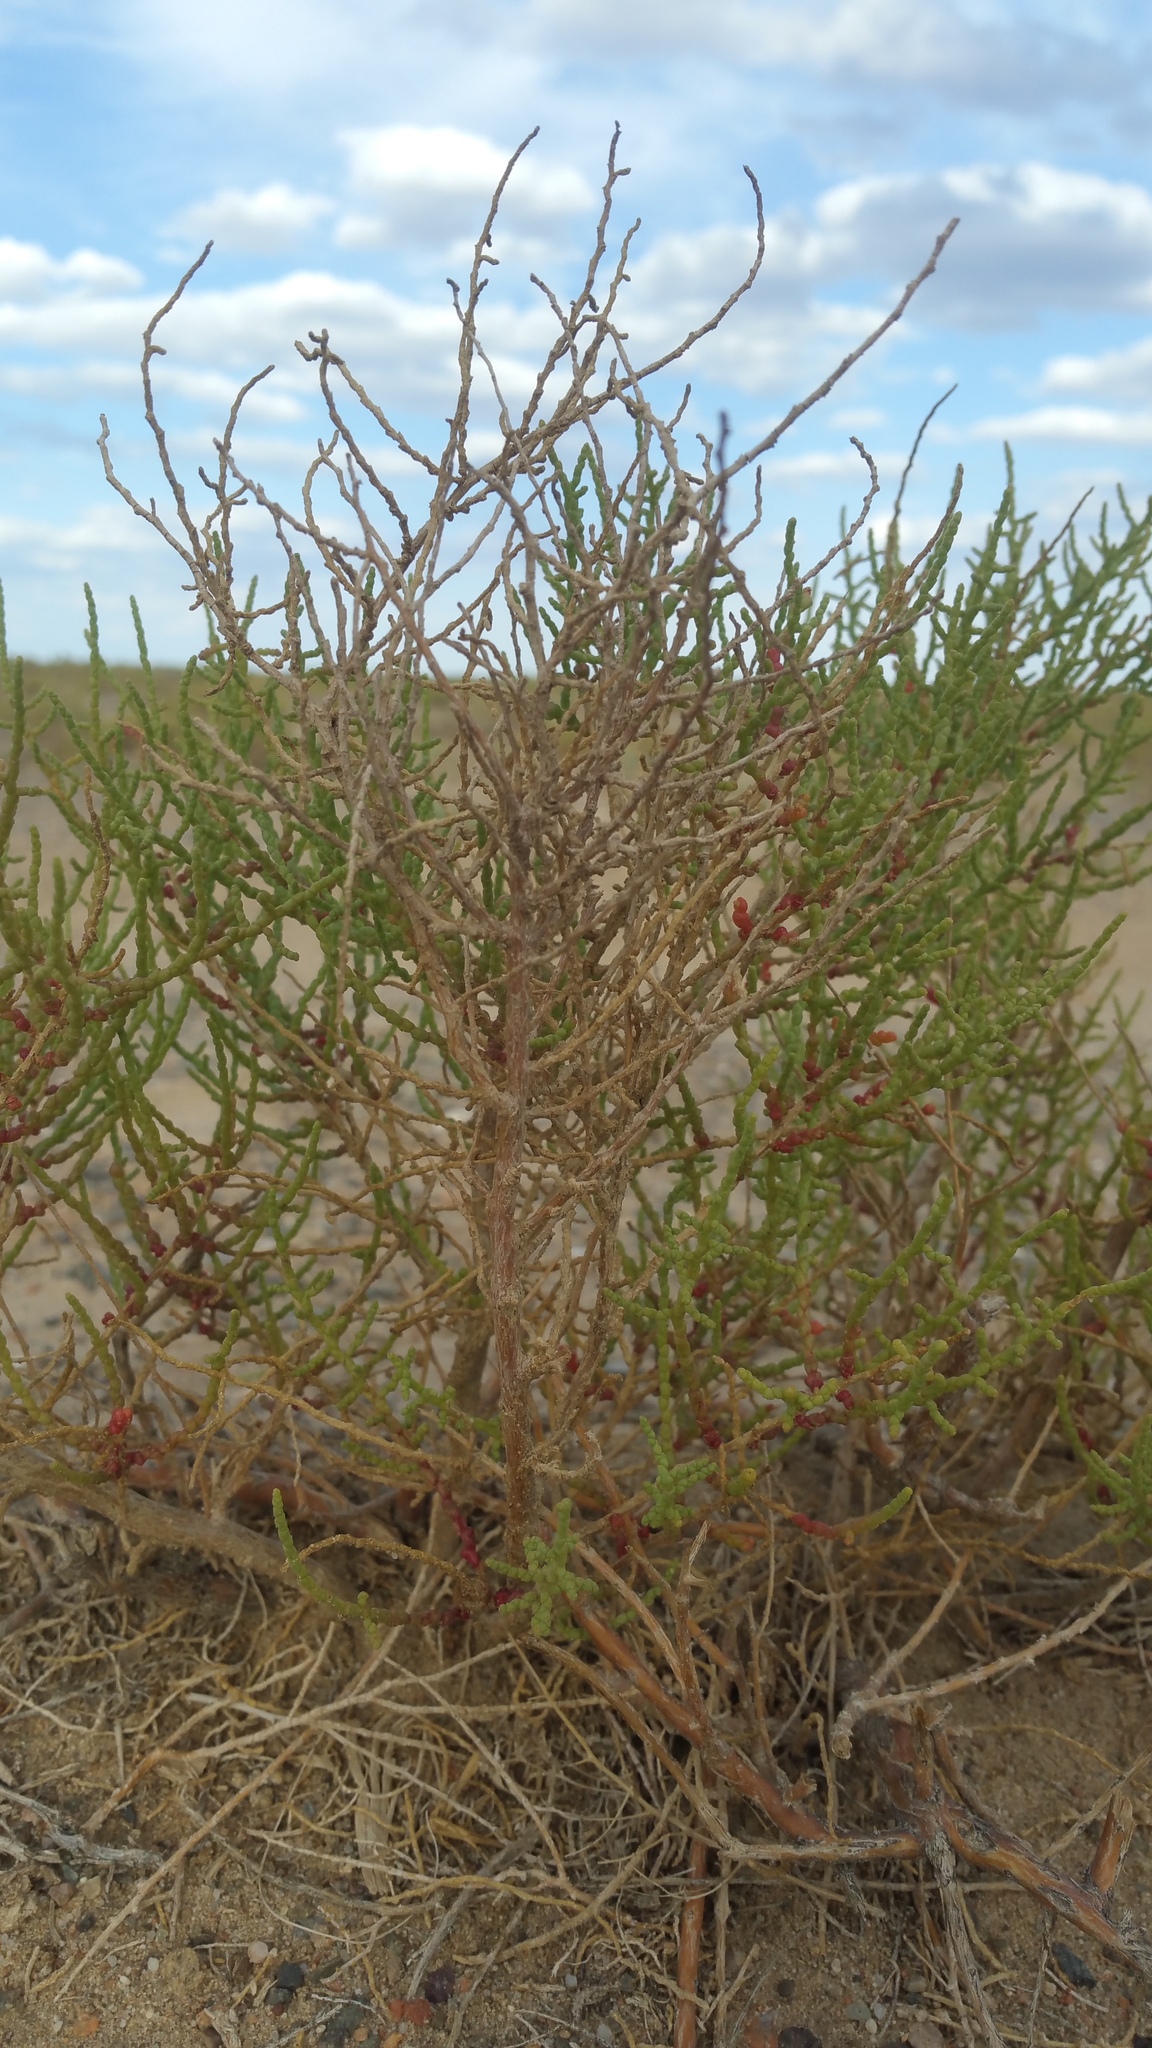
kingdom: Plantae
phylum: Tracheophyta
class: Magnoliopsida
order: Caryophyllales
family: Amaranthaceae
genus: Haloxylon
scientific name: Haloxylon ammodendron
